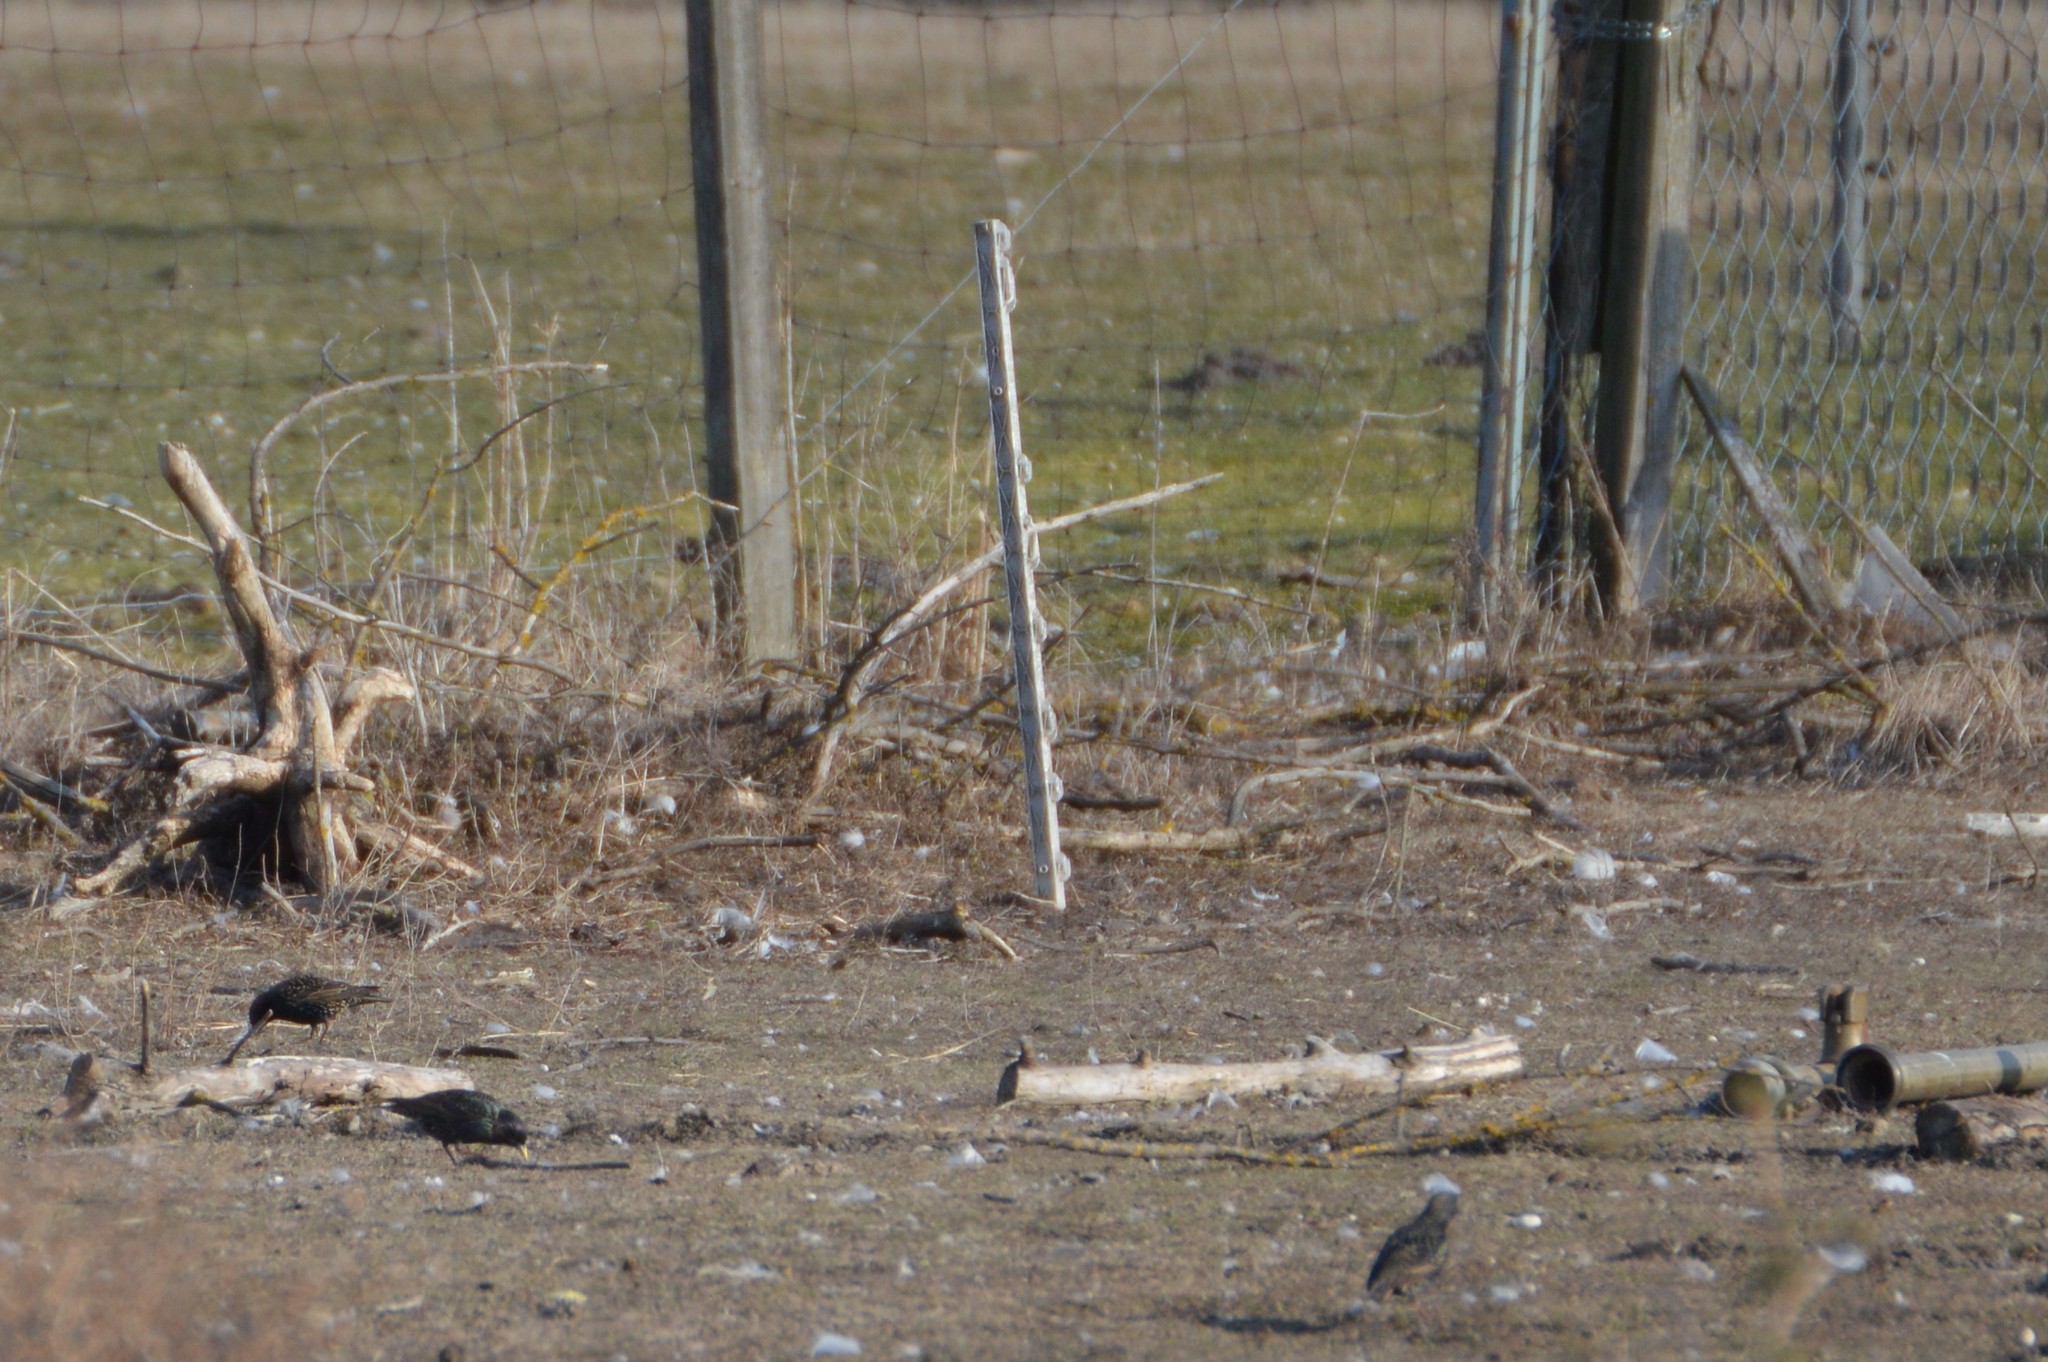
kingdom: Animalia
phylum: Chordata
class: Aves
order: Passeriformes
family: Sturnidae
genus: Sturnus
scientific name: Sturnus vulgaris
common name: Common starling
